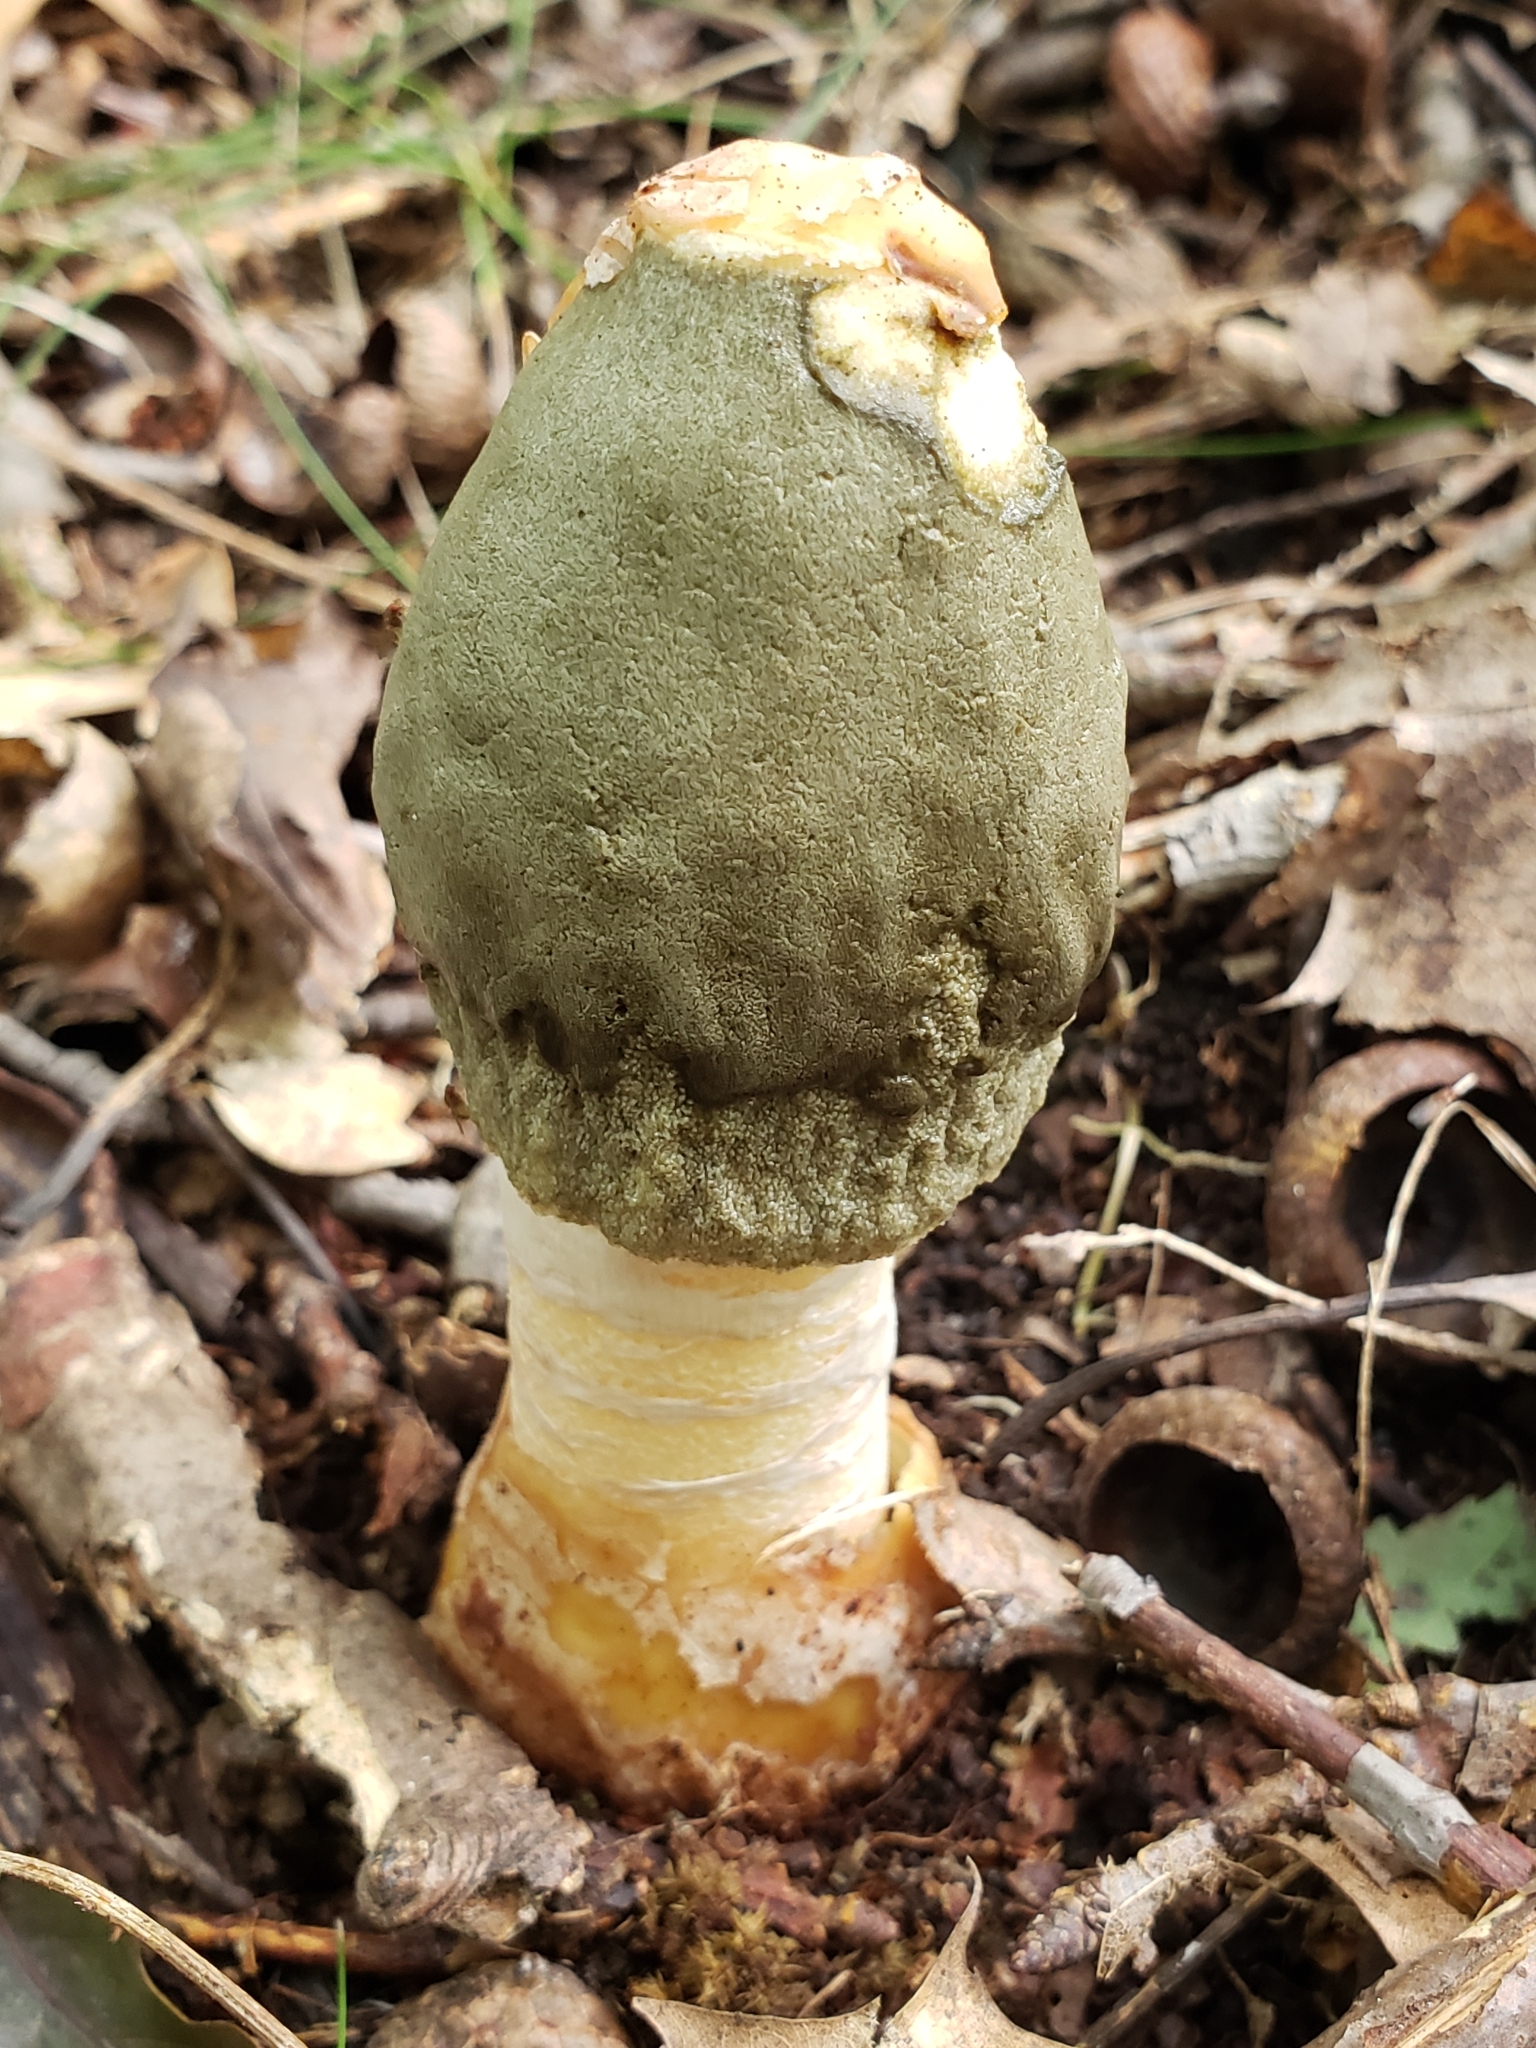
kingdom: Fungi
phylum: Basidiomycota
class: Agaricomycetes
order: Phallales
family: Phallaceae
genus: Phallus
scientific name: Phallus ravenelii
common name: Ravenel's stinkhorn
